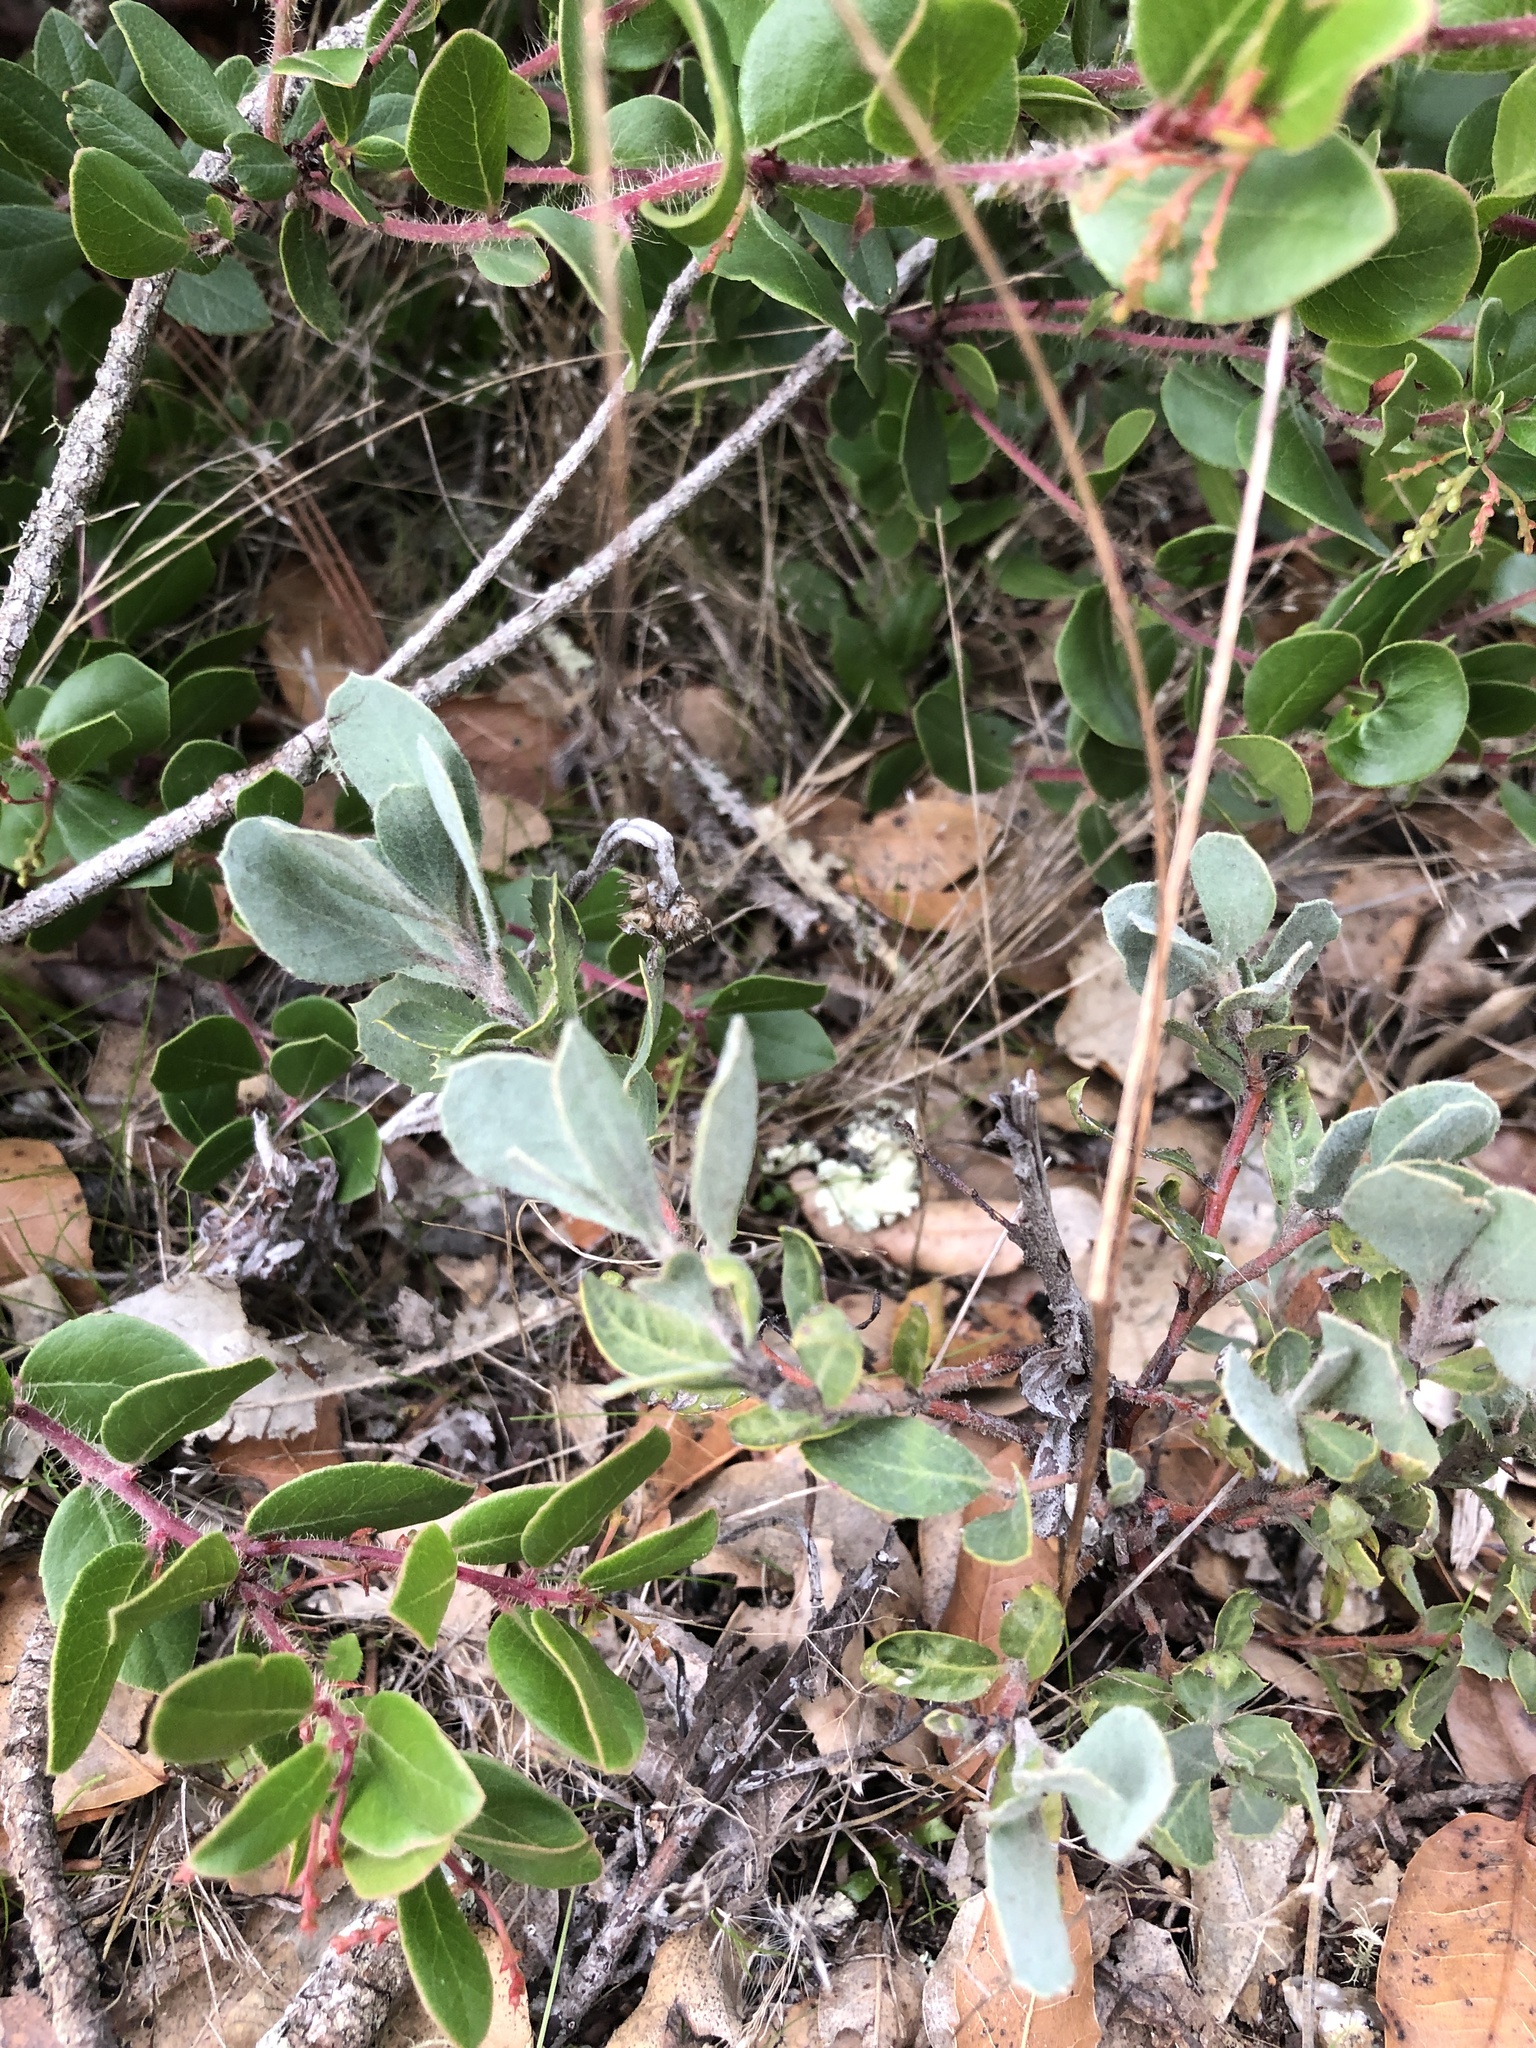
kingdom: Plantae
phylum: Tracheophyta
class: Magnoliopsida
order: Ericales
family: Ericaceae
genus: Arctostaphylos
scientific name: Arctostaphylos silvicola
